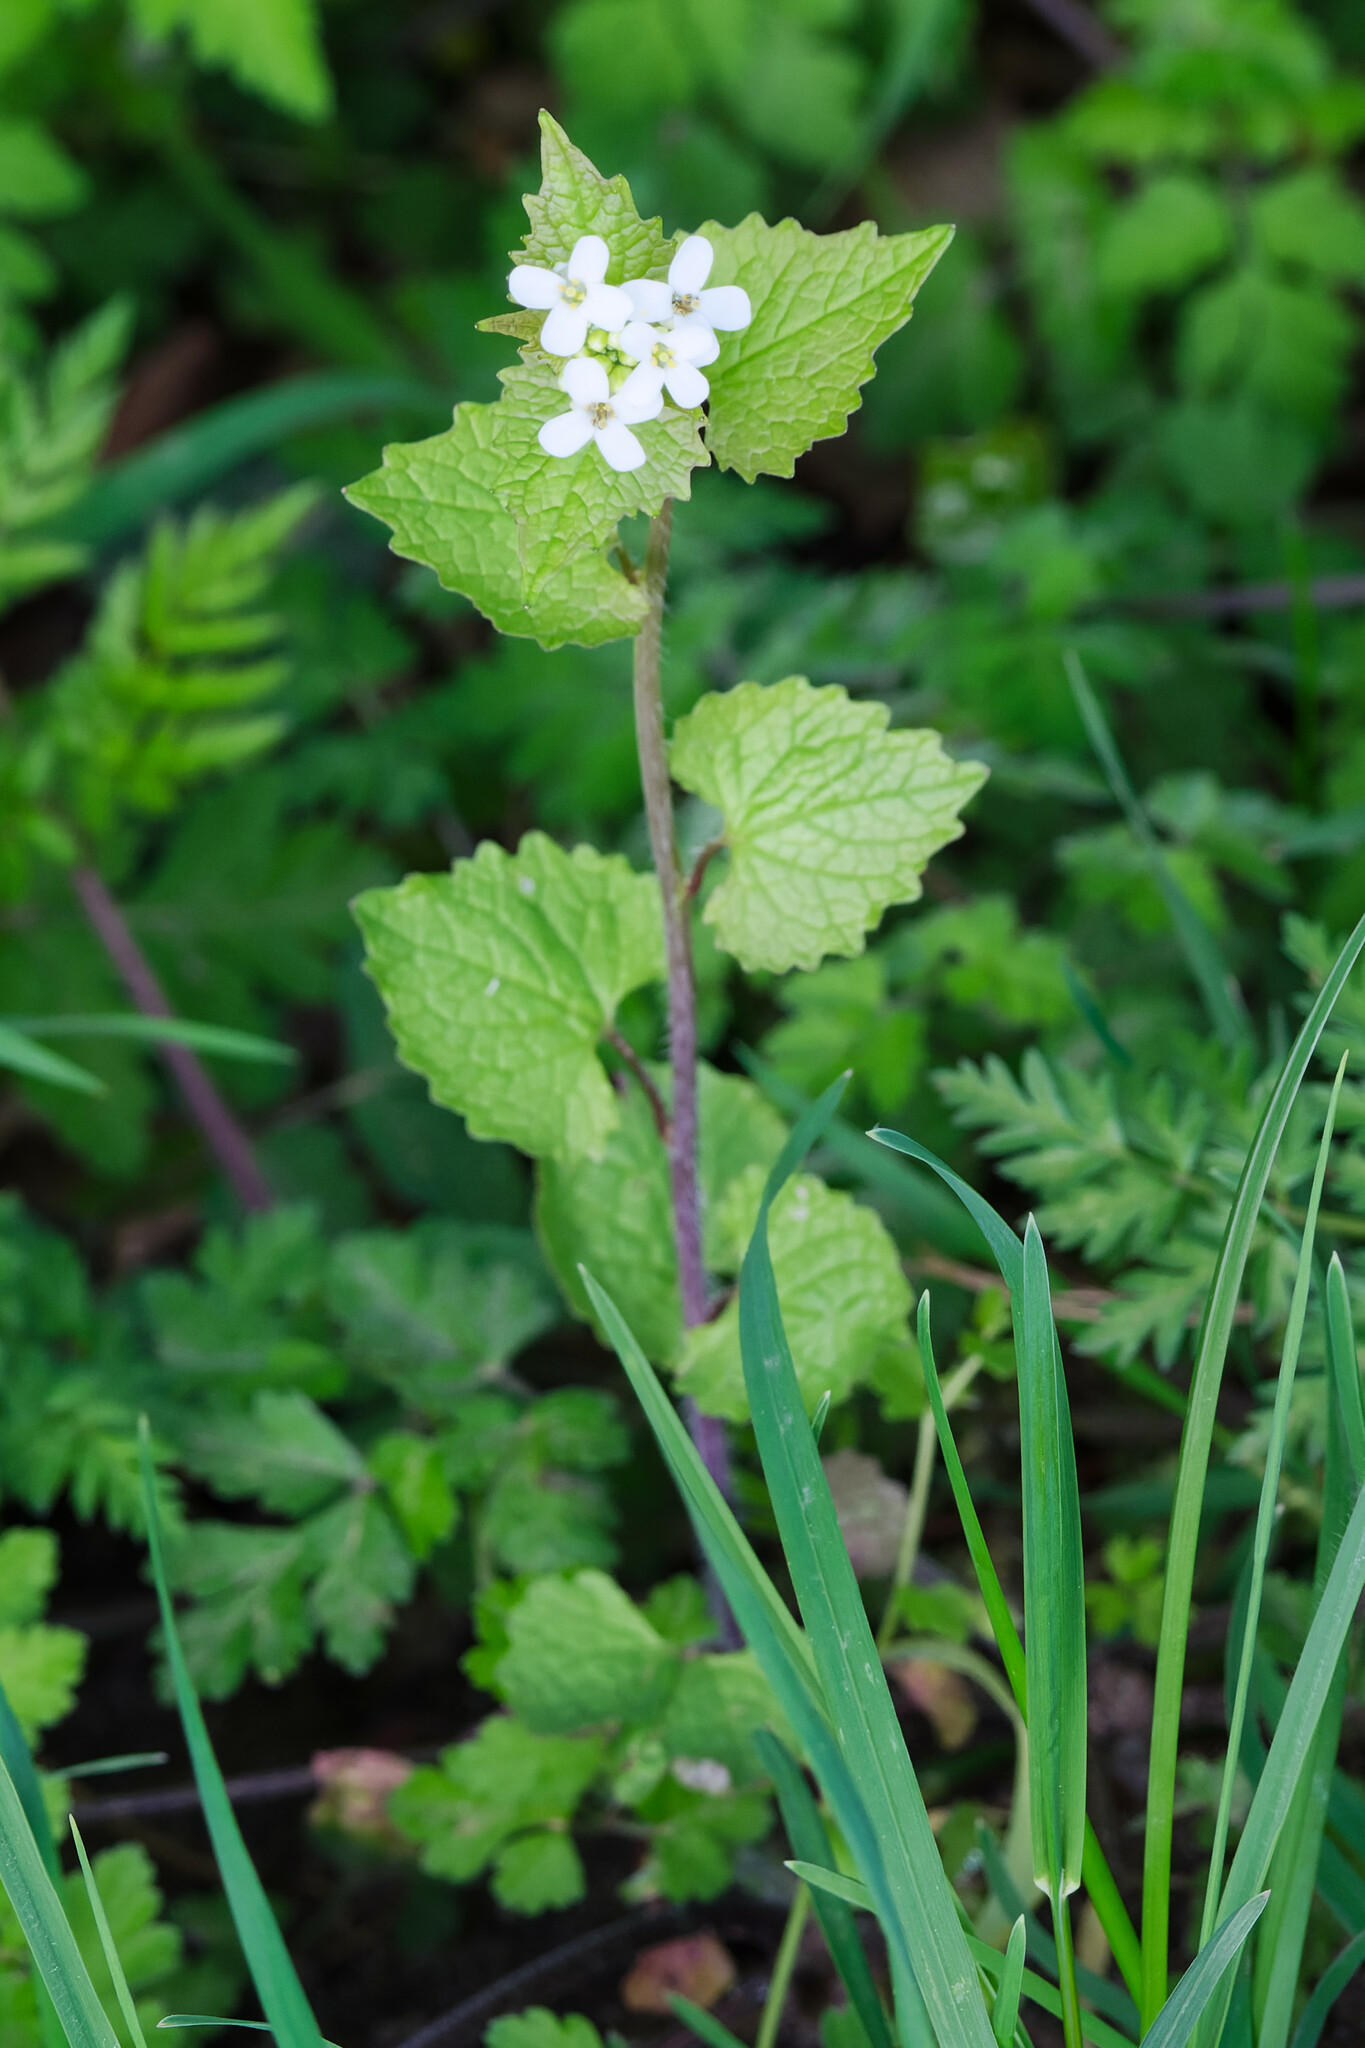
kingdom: Plantae
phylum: Tracheophyta
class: Magnoliopsida
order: Brassicales
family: Brassicaceae
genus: Alliaria
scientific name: Alliaria petiolata
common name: Garlic mustard
